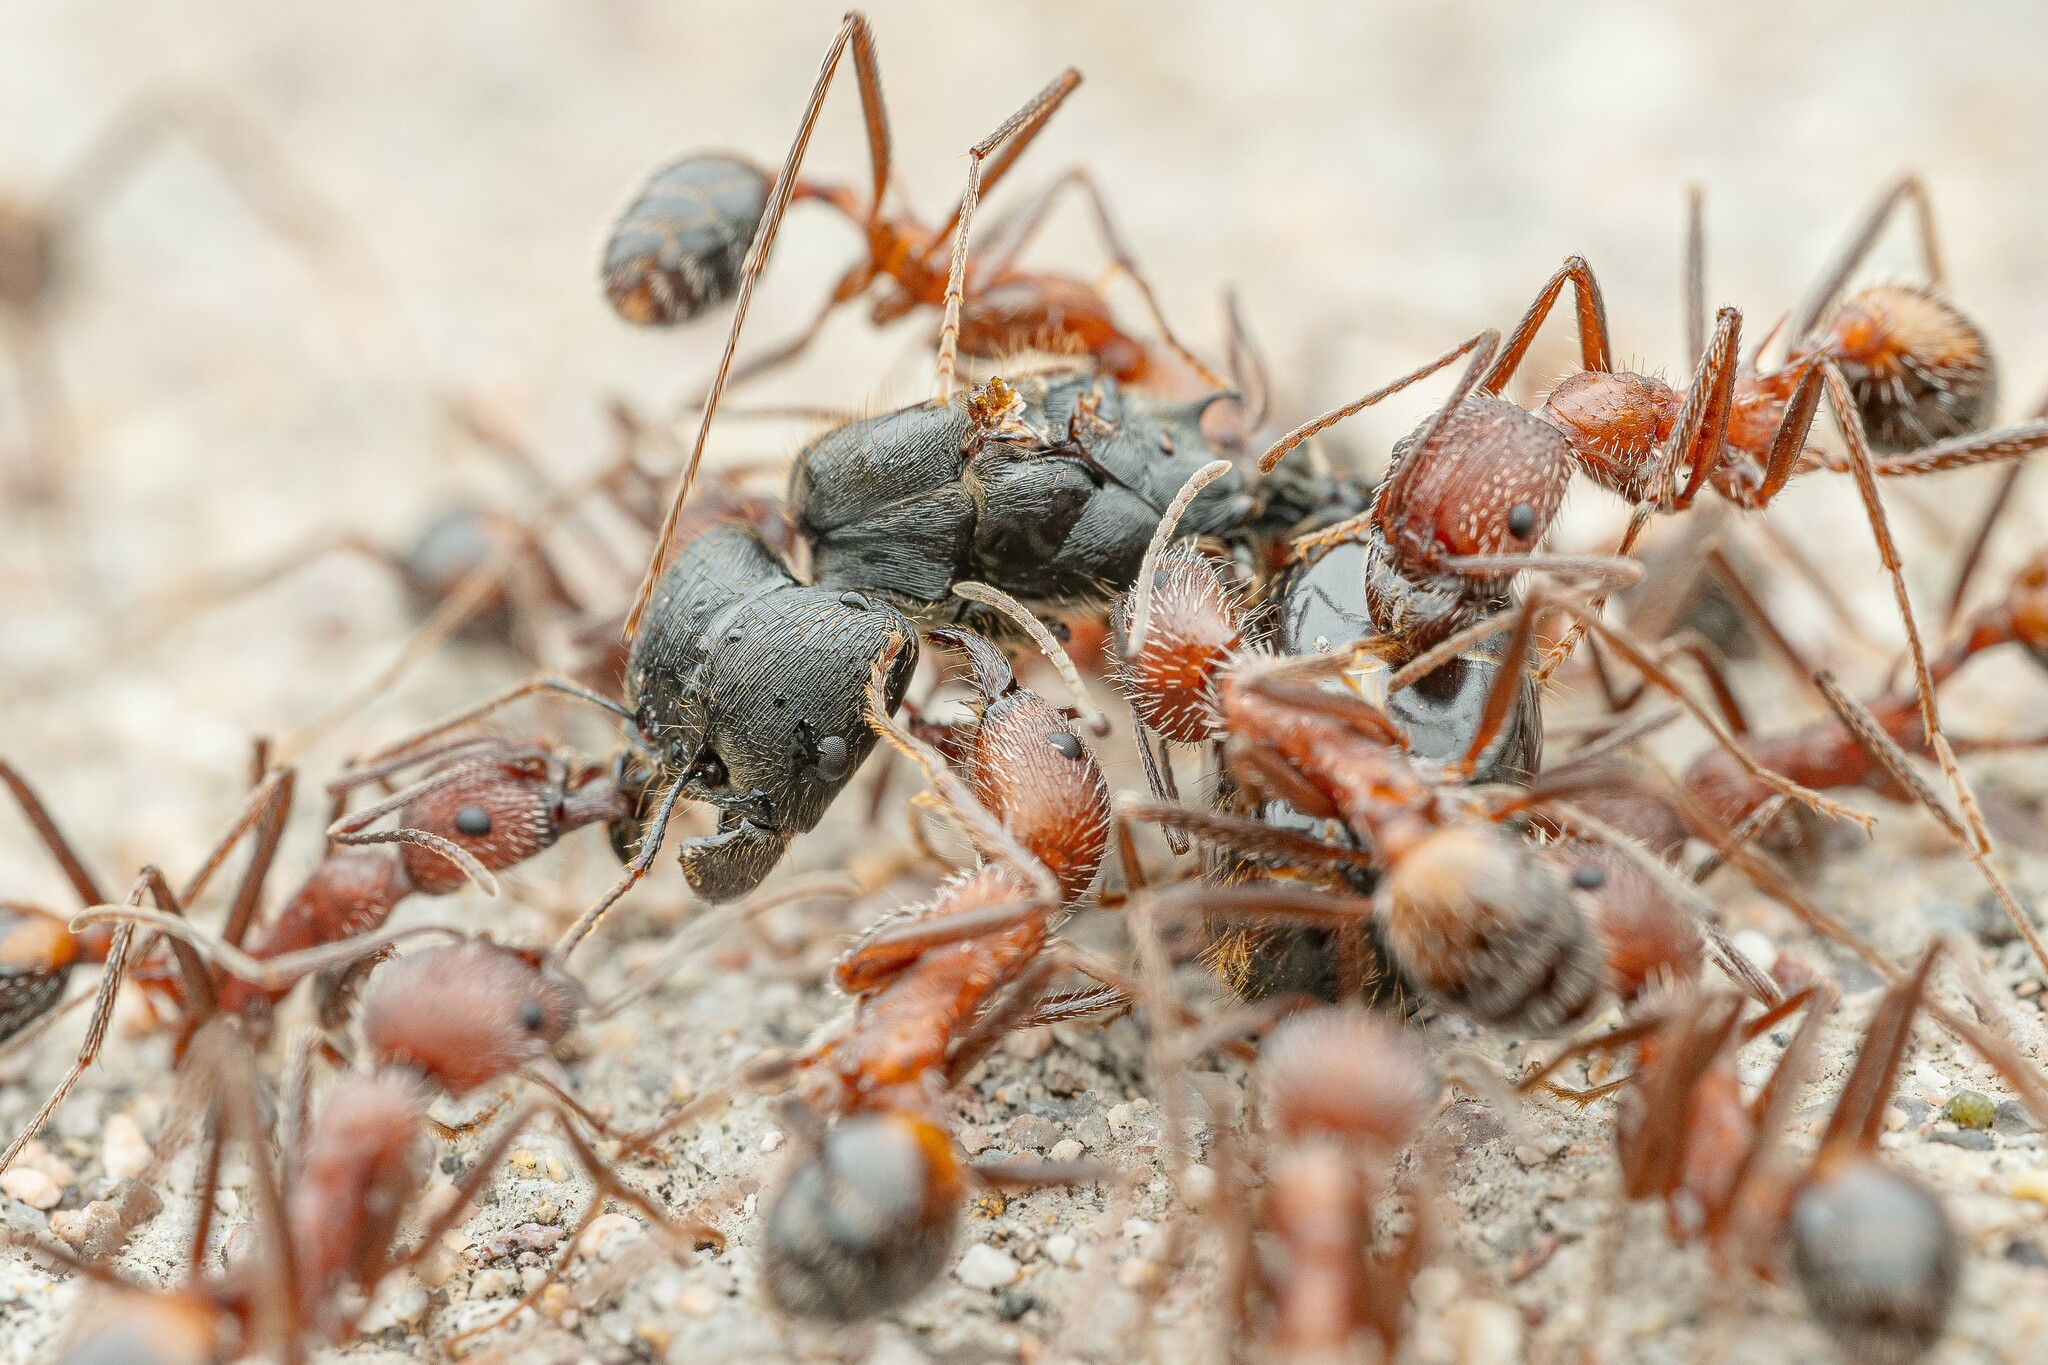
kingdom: Animalia
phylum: Arthropoda
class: Insecta
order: Hymenoptera
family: Formicidae
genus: Pheidole
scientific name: Pheidole rhea
